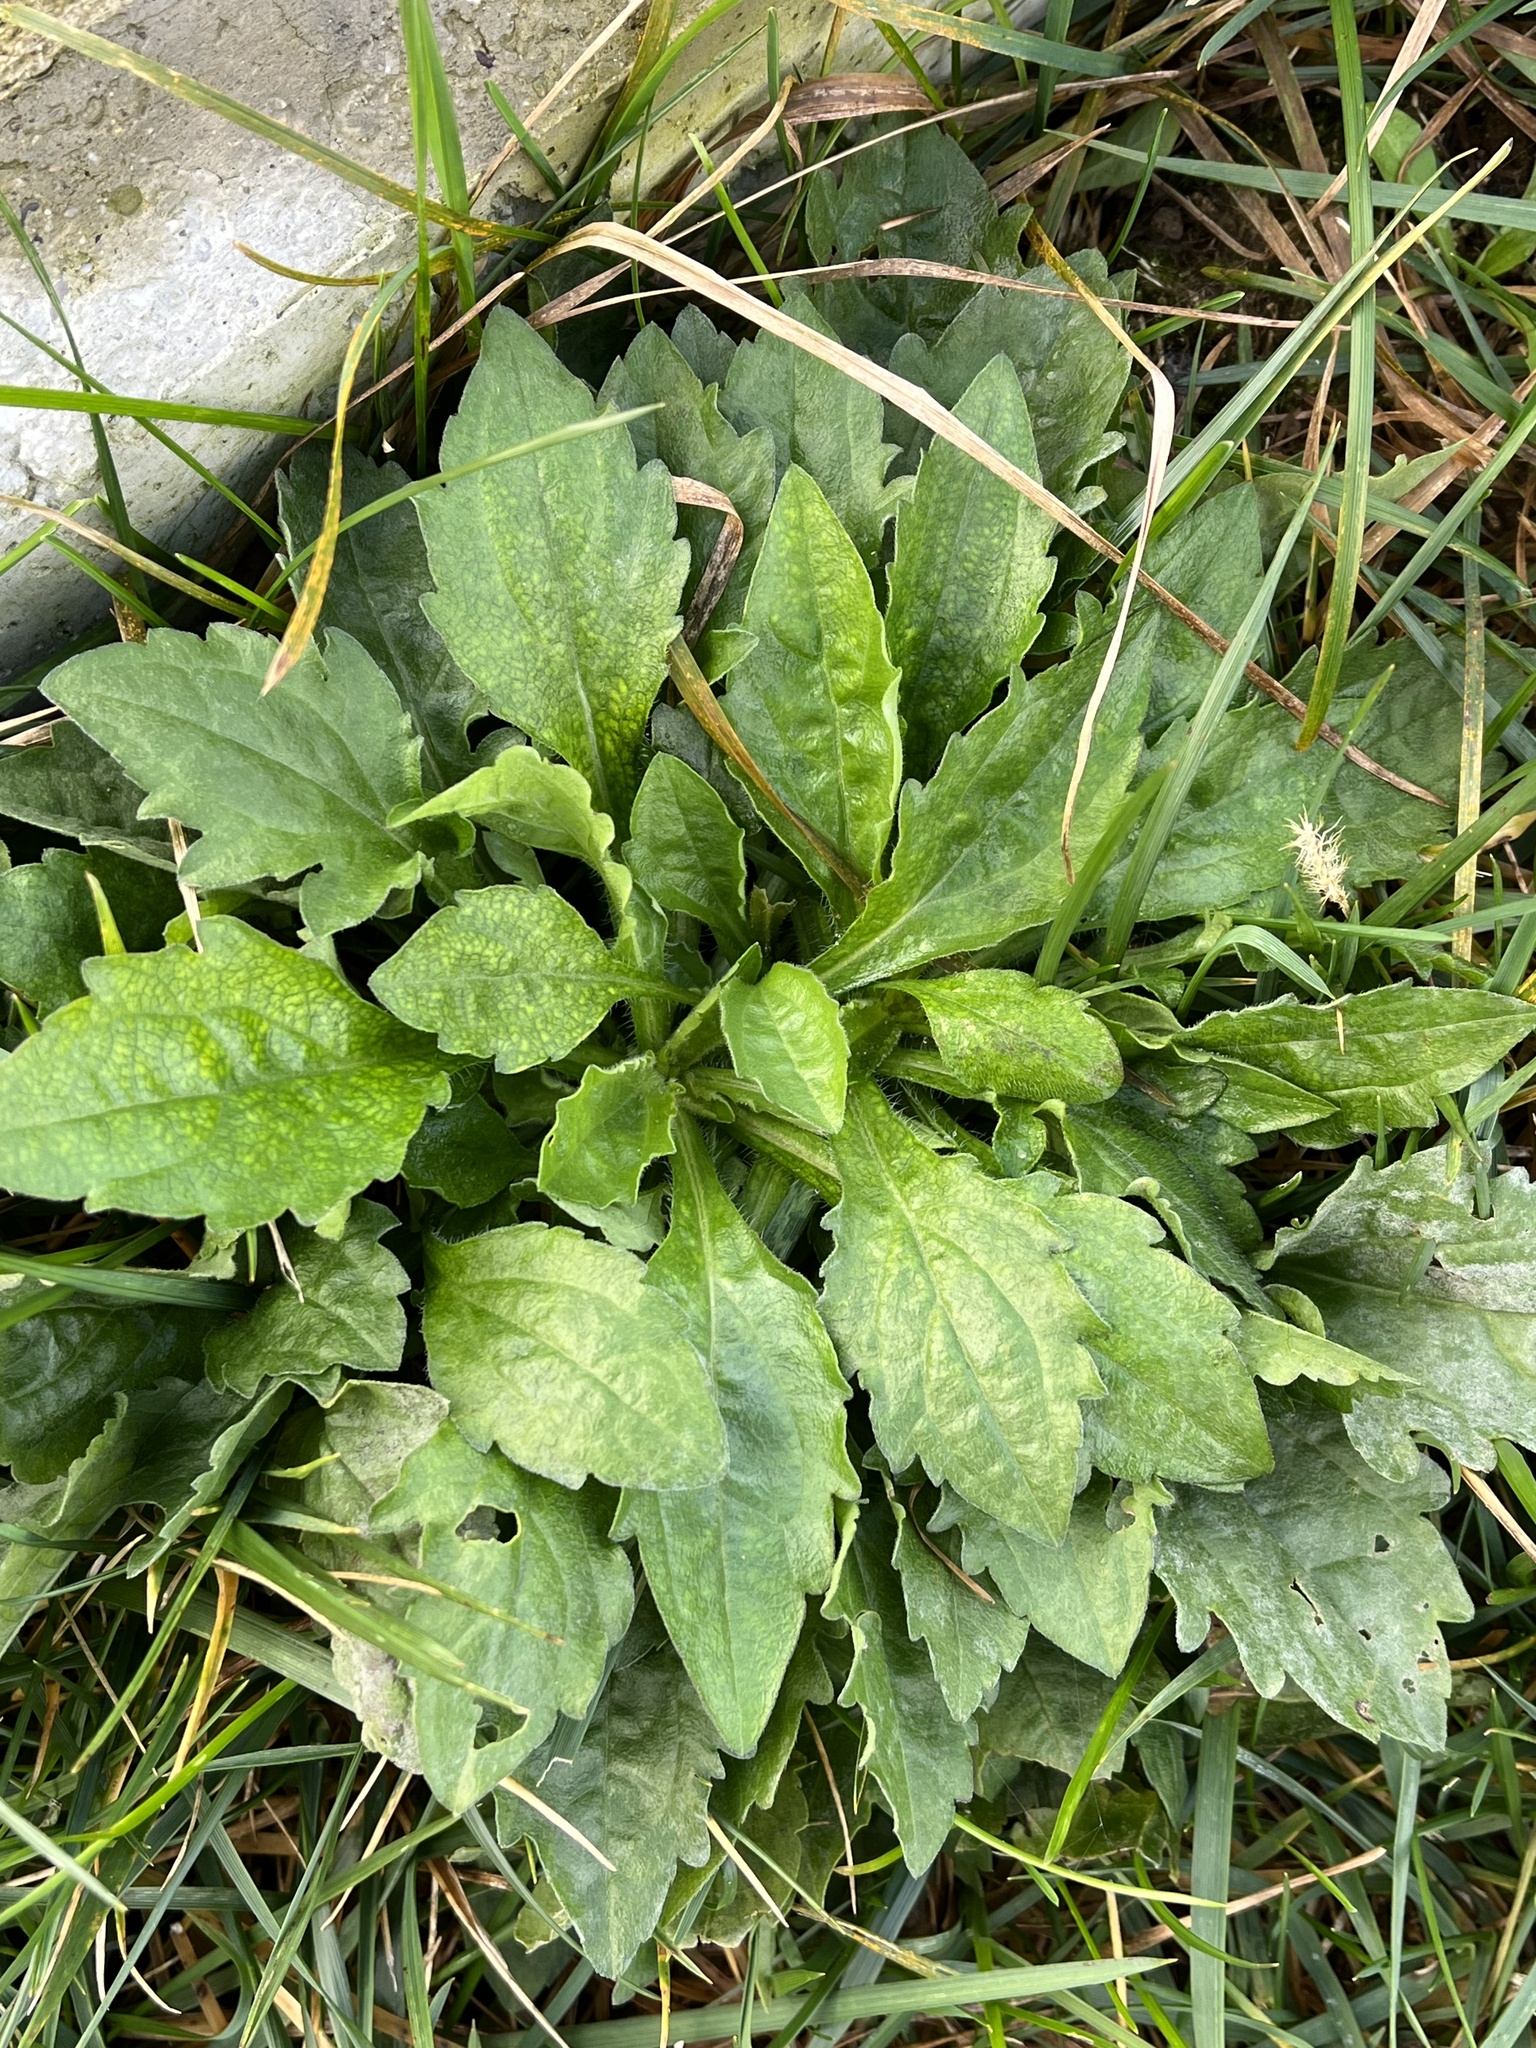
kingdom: Plantae
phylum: Tracheophyta
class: Magnoliopsida
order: Asterales
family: Asteraceae
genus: Erigeron
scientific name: Erigeron annuus
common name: Tall fleabane
